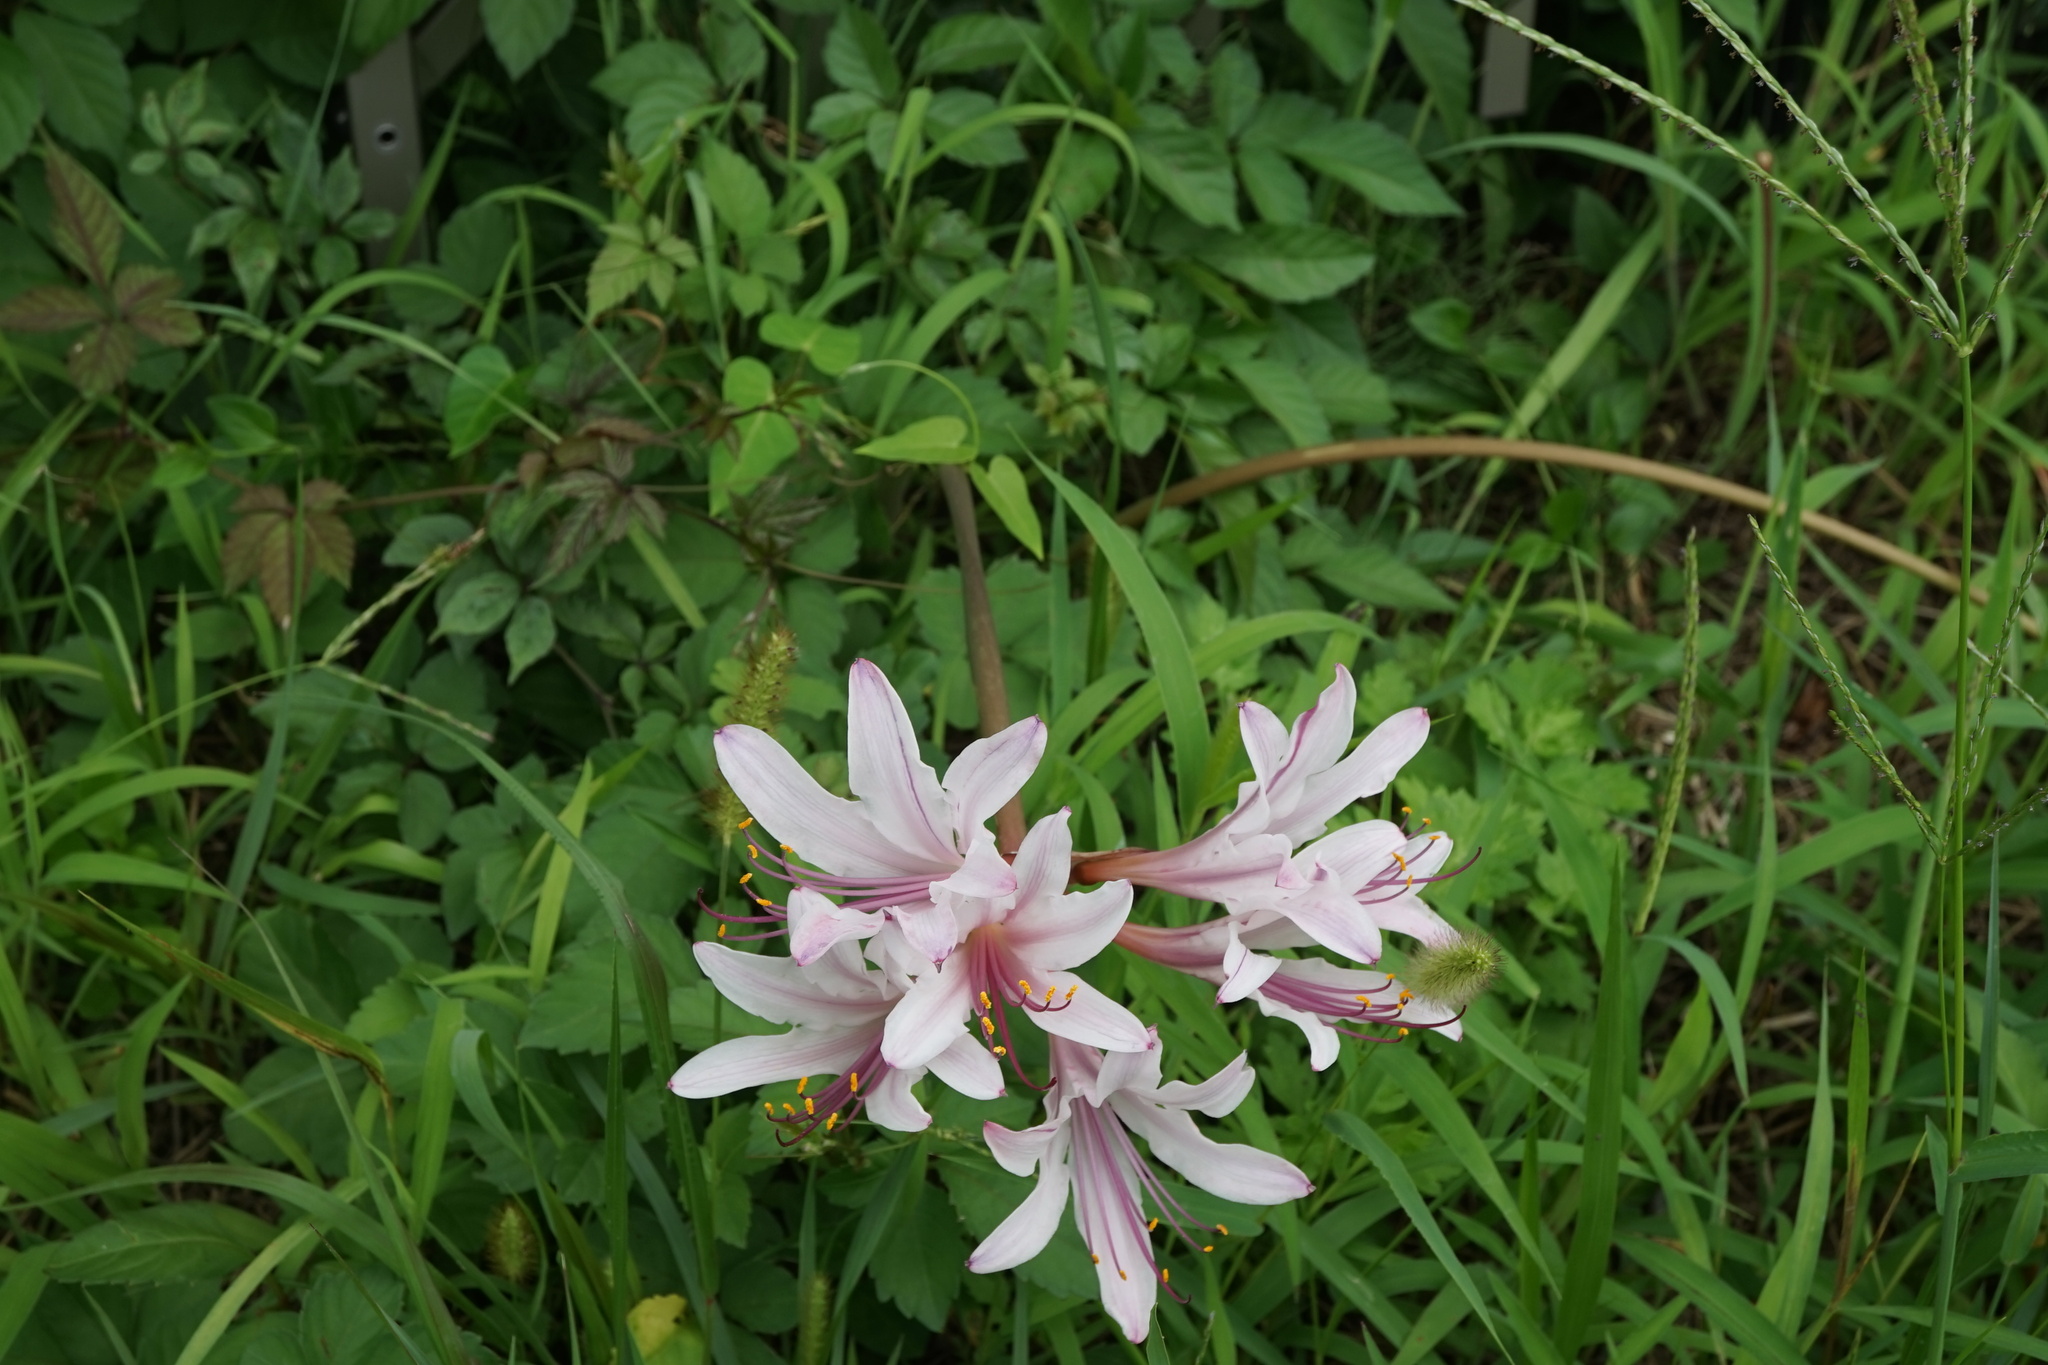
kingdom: Plantae
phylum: Tracheophyta
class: Liliopsida
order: Asparagales
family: Amaryllidaceae
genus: Lycoris
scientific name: Lycoris squamigera
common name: Magic-lily
